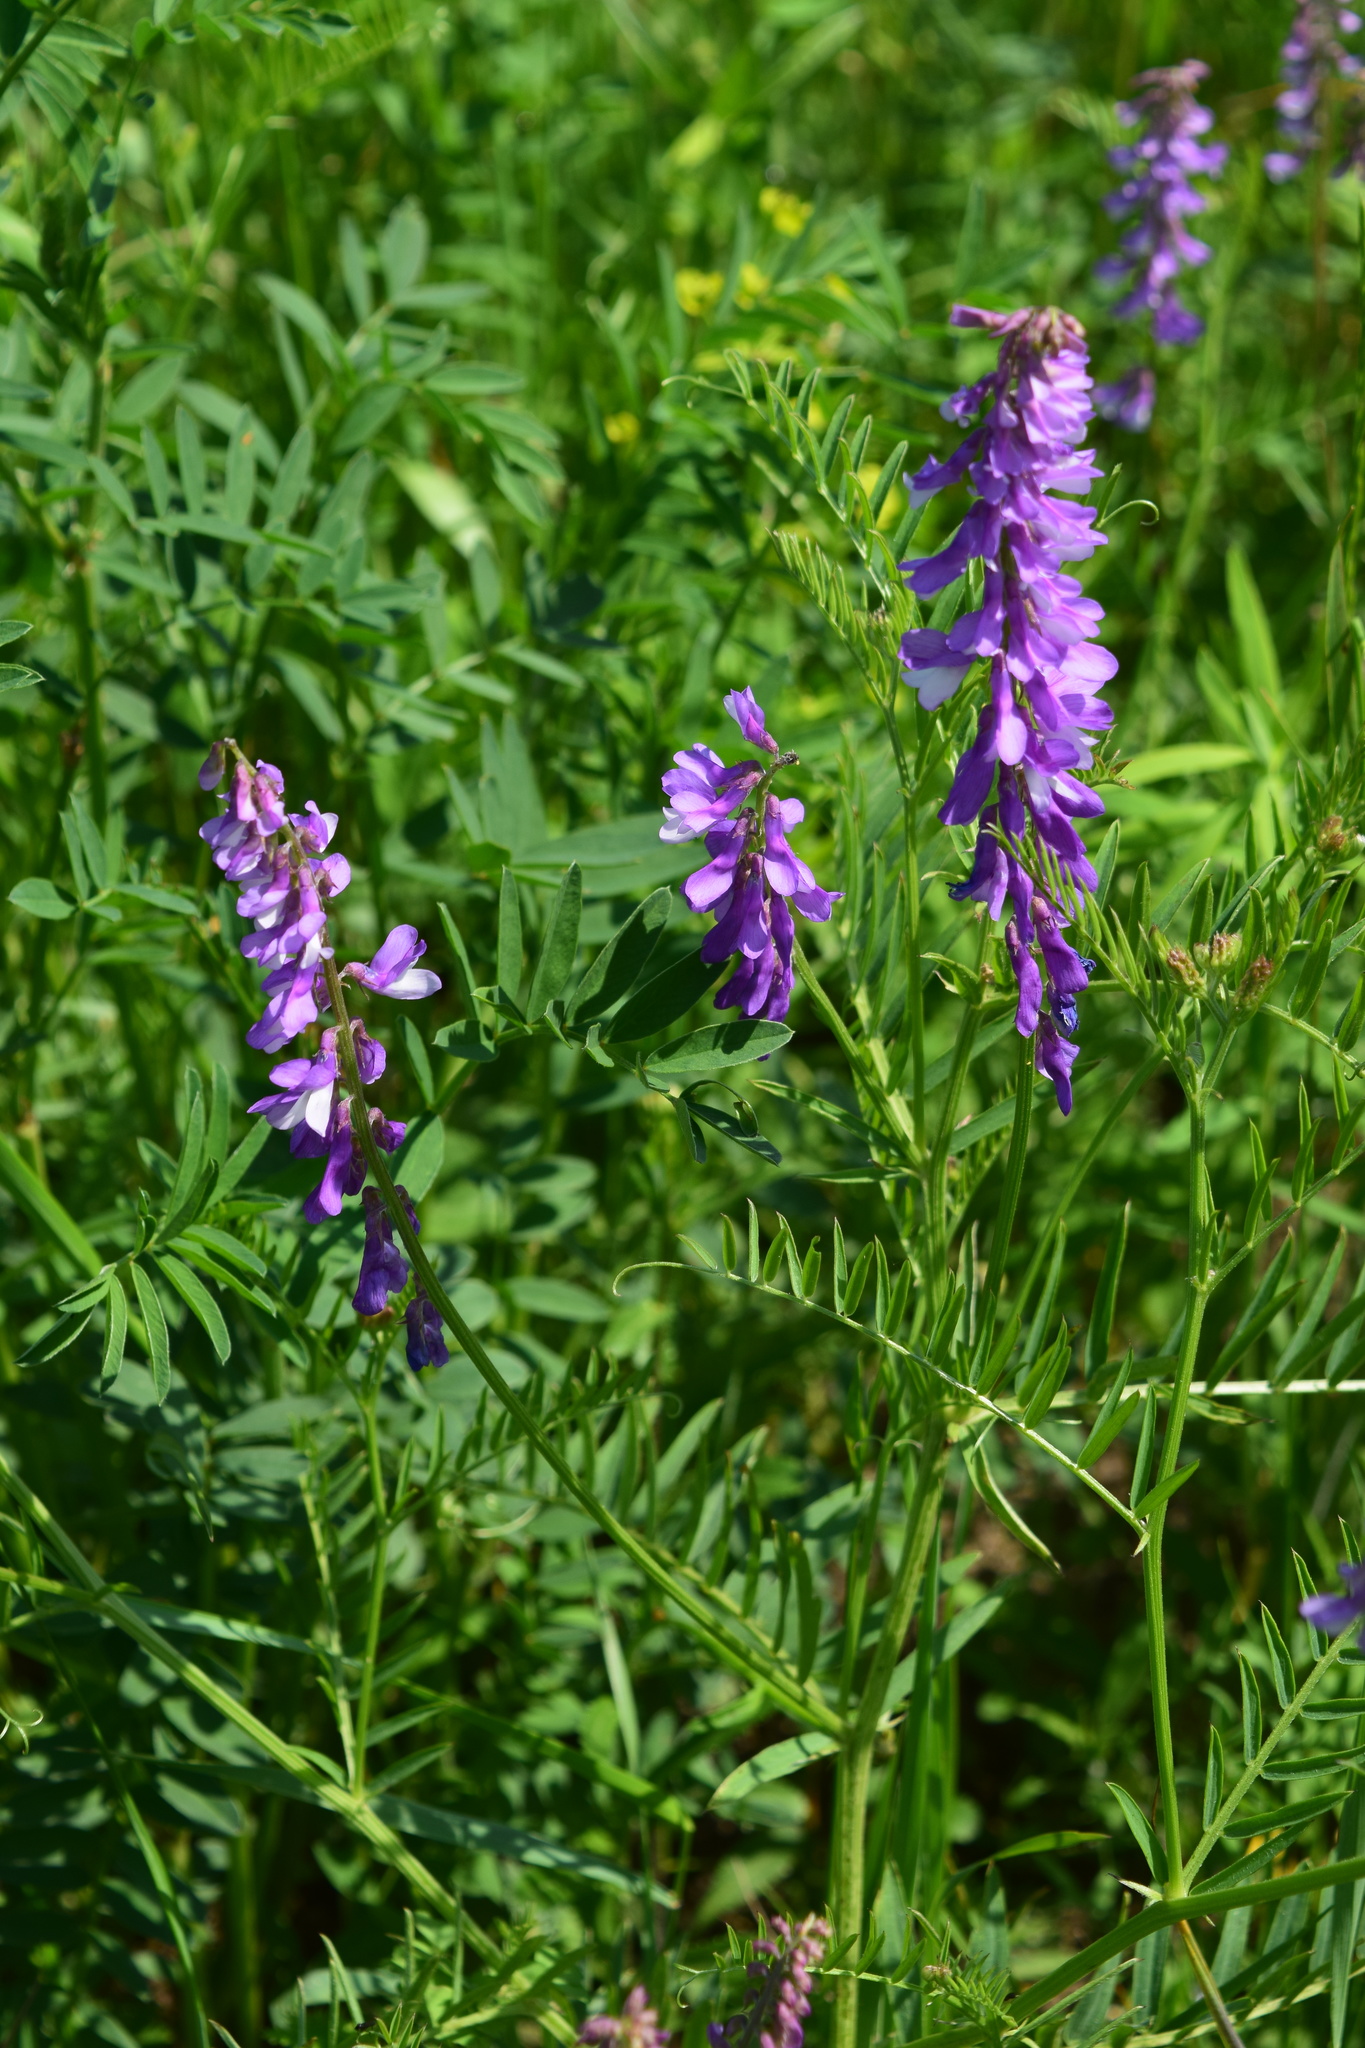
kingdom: Plantae
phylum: Tracheophyta
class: Magnoliopsida
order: Fabales
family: Fabaceae
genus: Vicia
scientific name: Vicia tenuifolia
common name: Fine-leaved vetch
